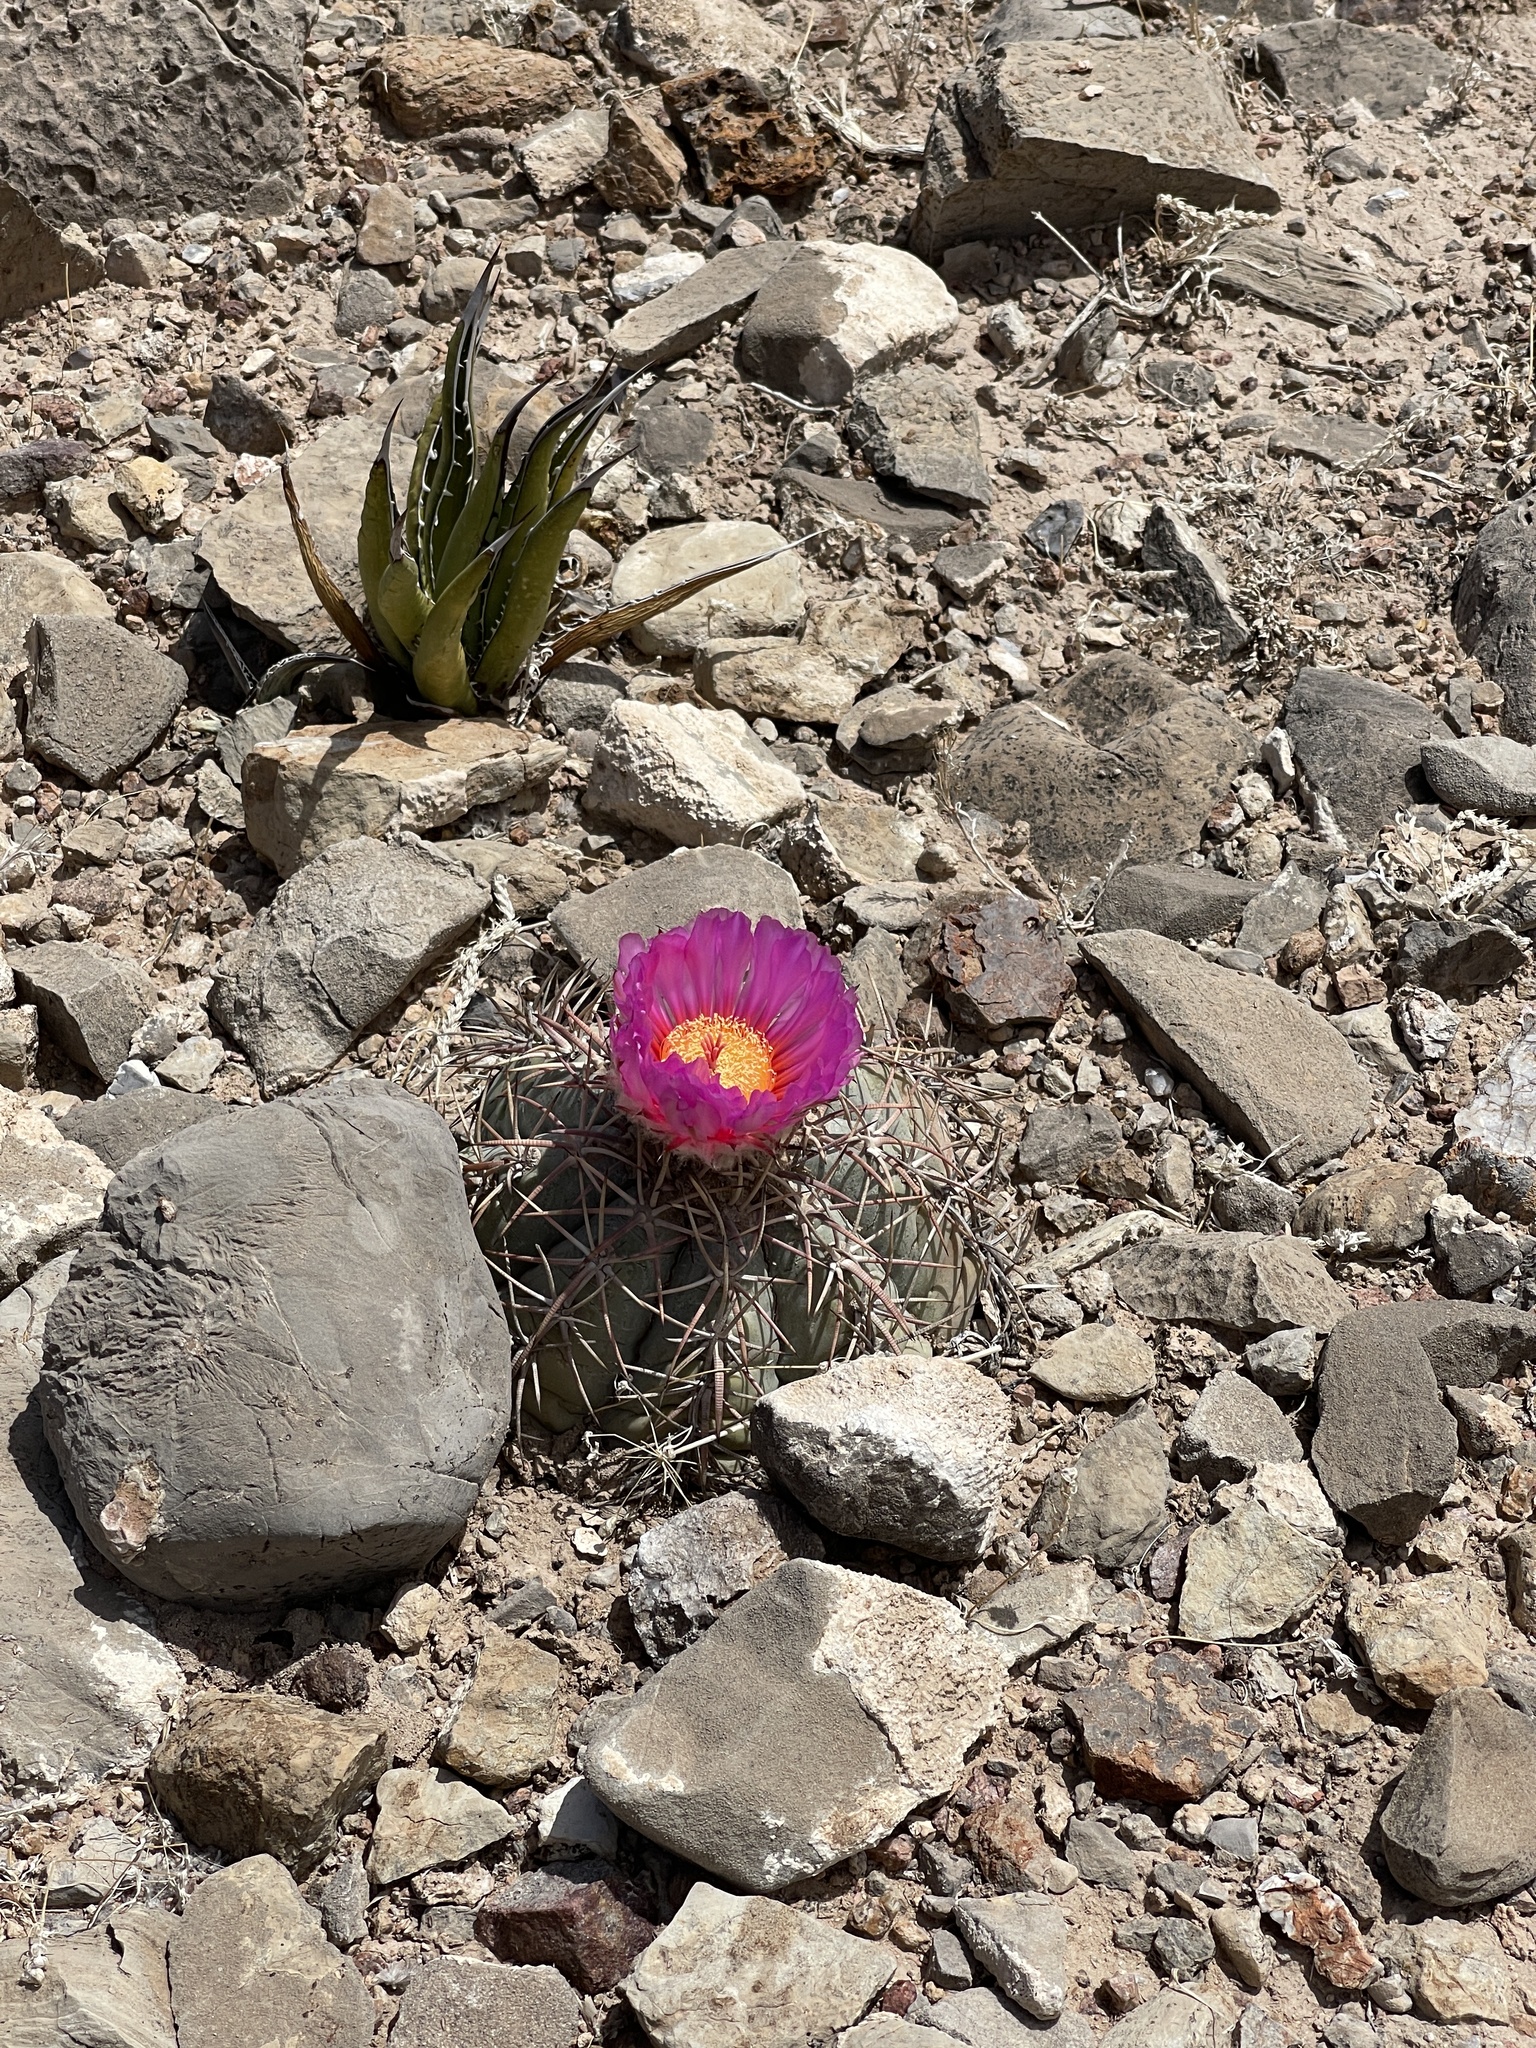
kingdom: Plantae
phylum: Tracheophyta
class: Magnoliopsida
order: Caryophyllales
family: Cactaceae
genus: Echinocactus
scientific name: Echinocactus horizonthalonius
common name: Devilshead
